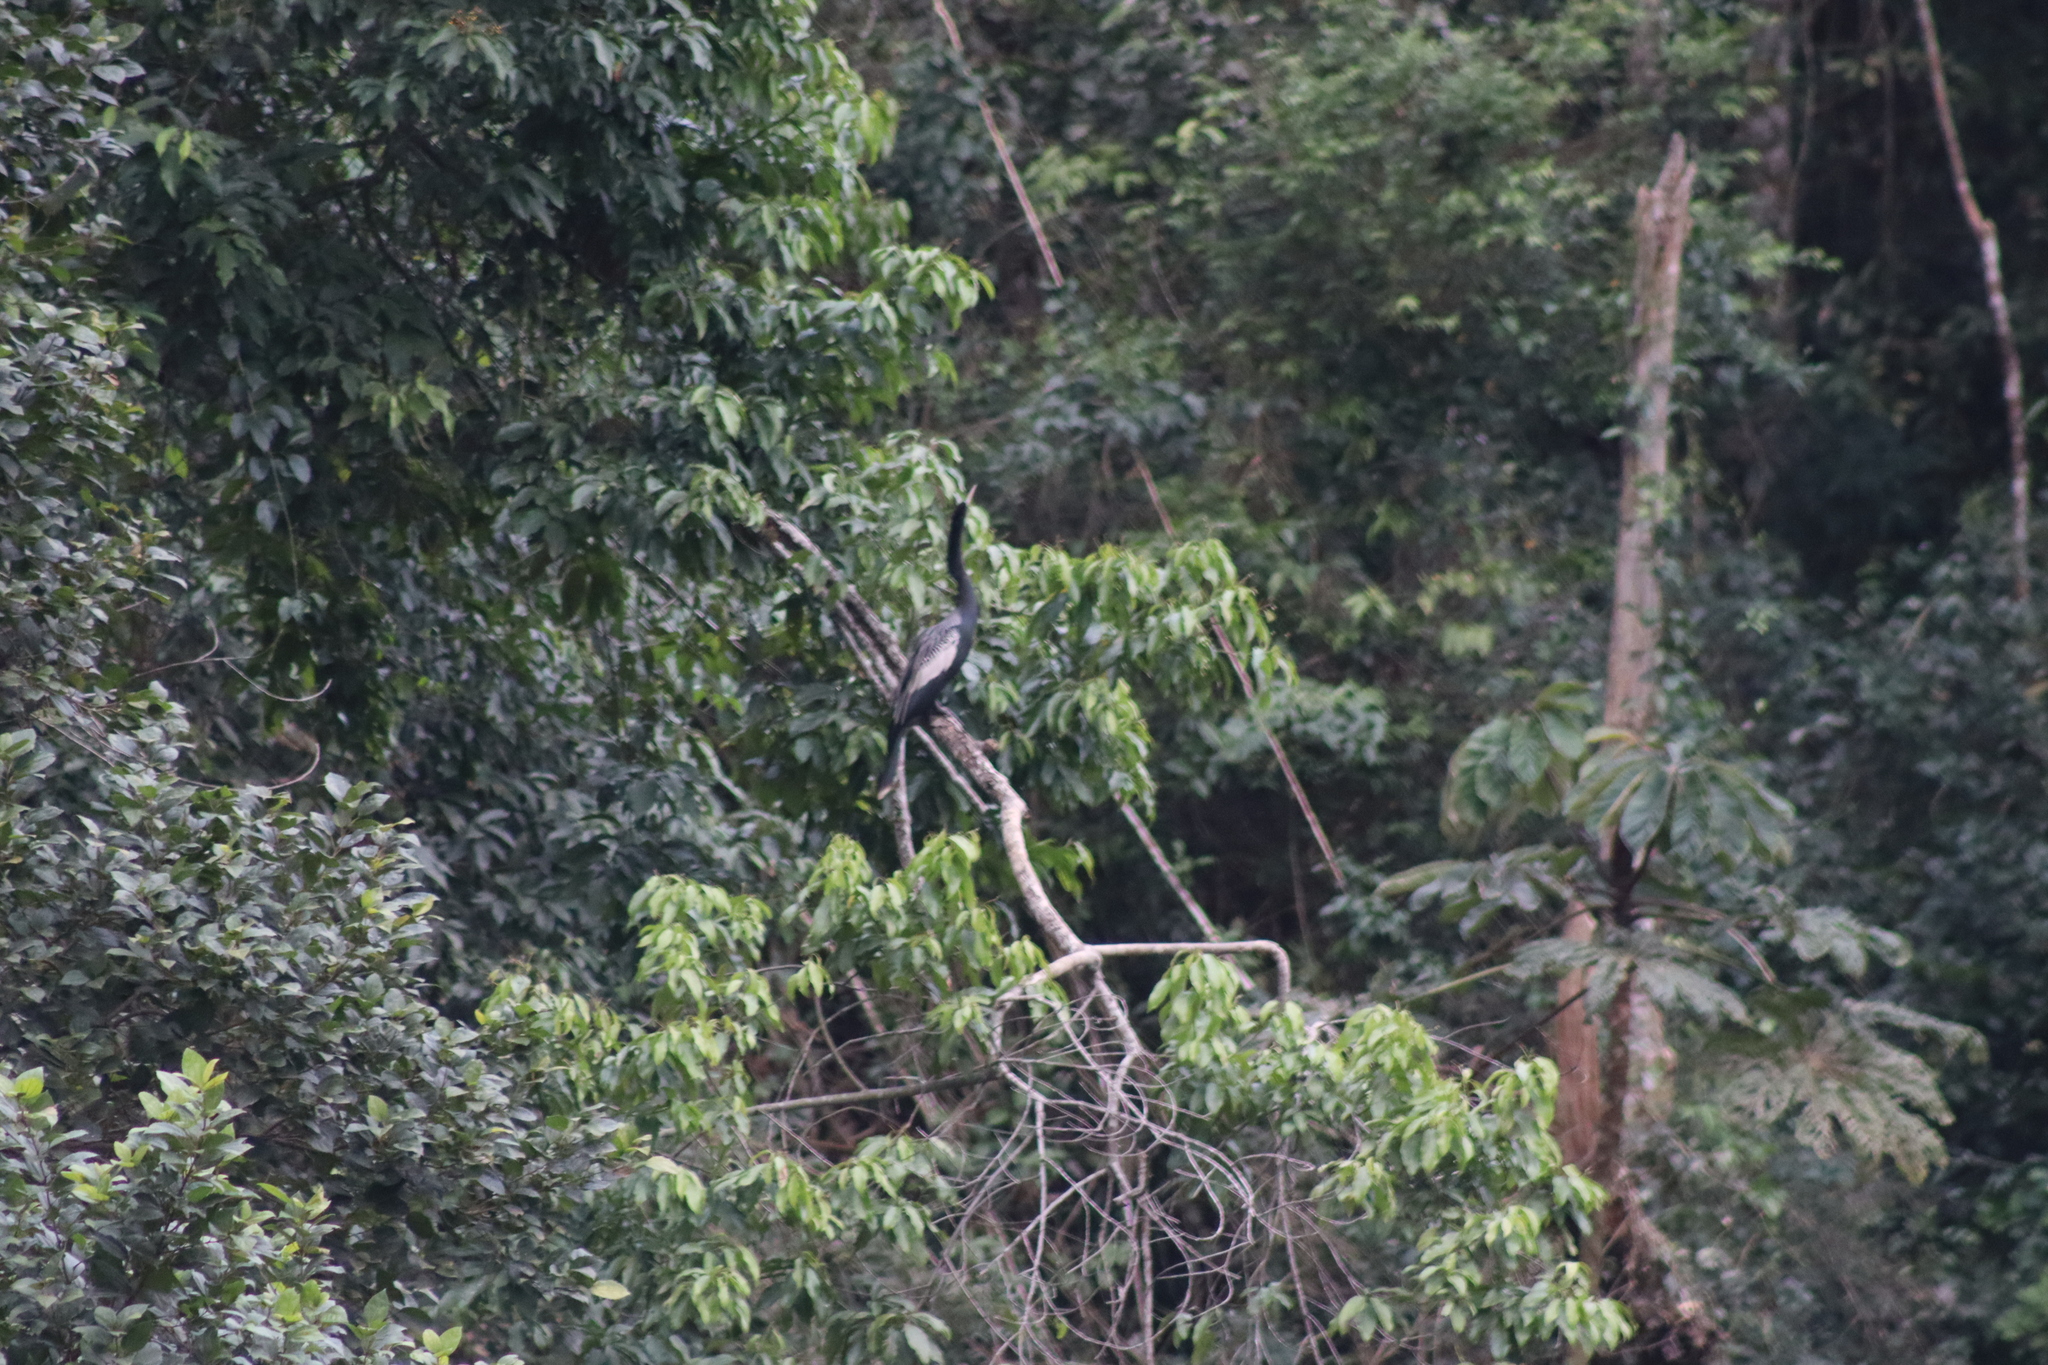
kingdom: Animalia
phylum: Chordata
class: Aves
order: Suliformes
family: Anhingidae
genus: Anhinga
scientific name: Anhinga anhinga
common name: Anhinga
